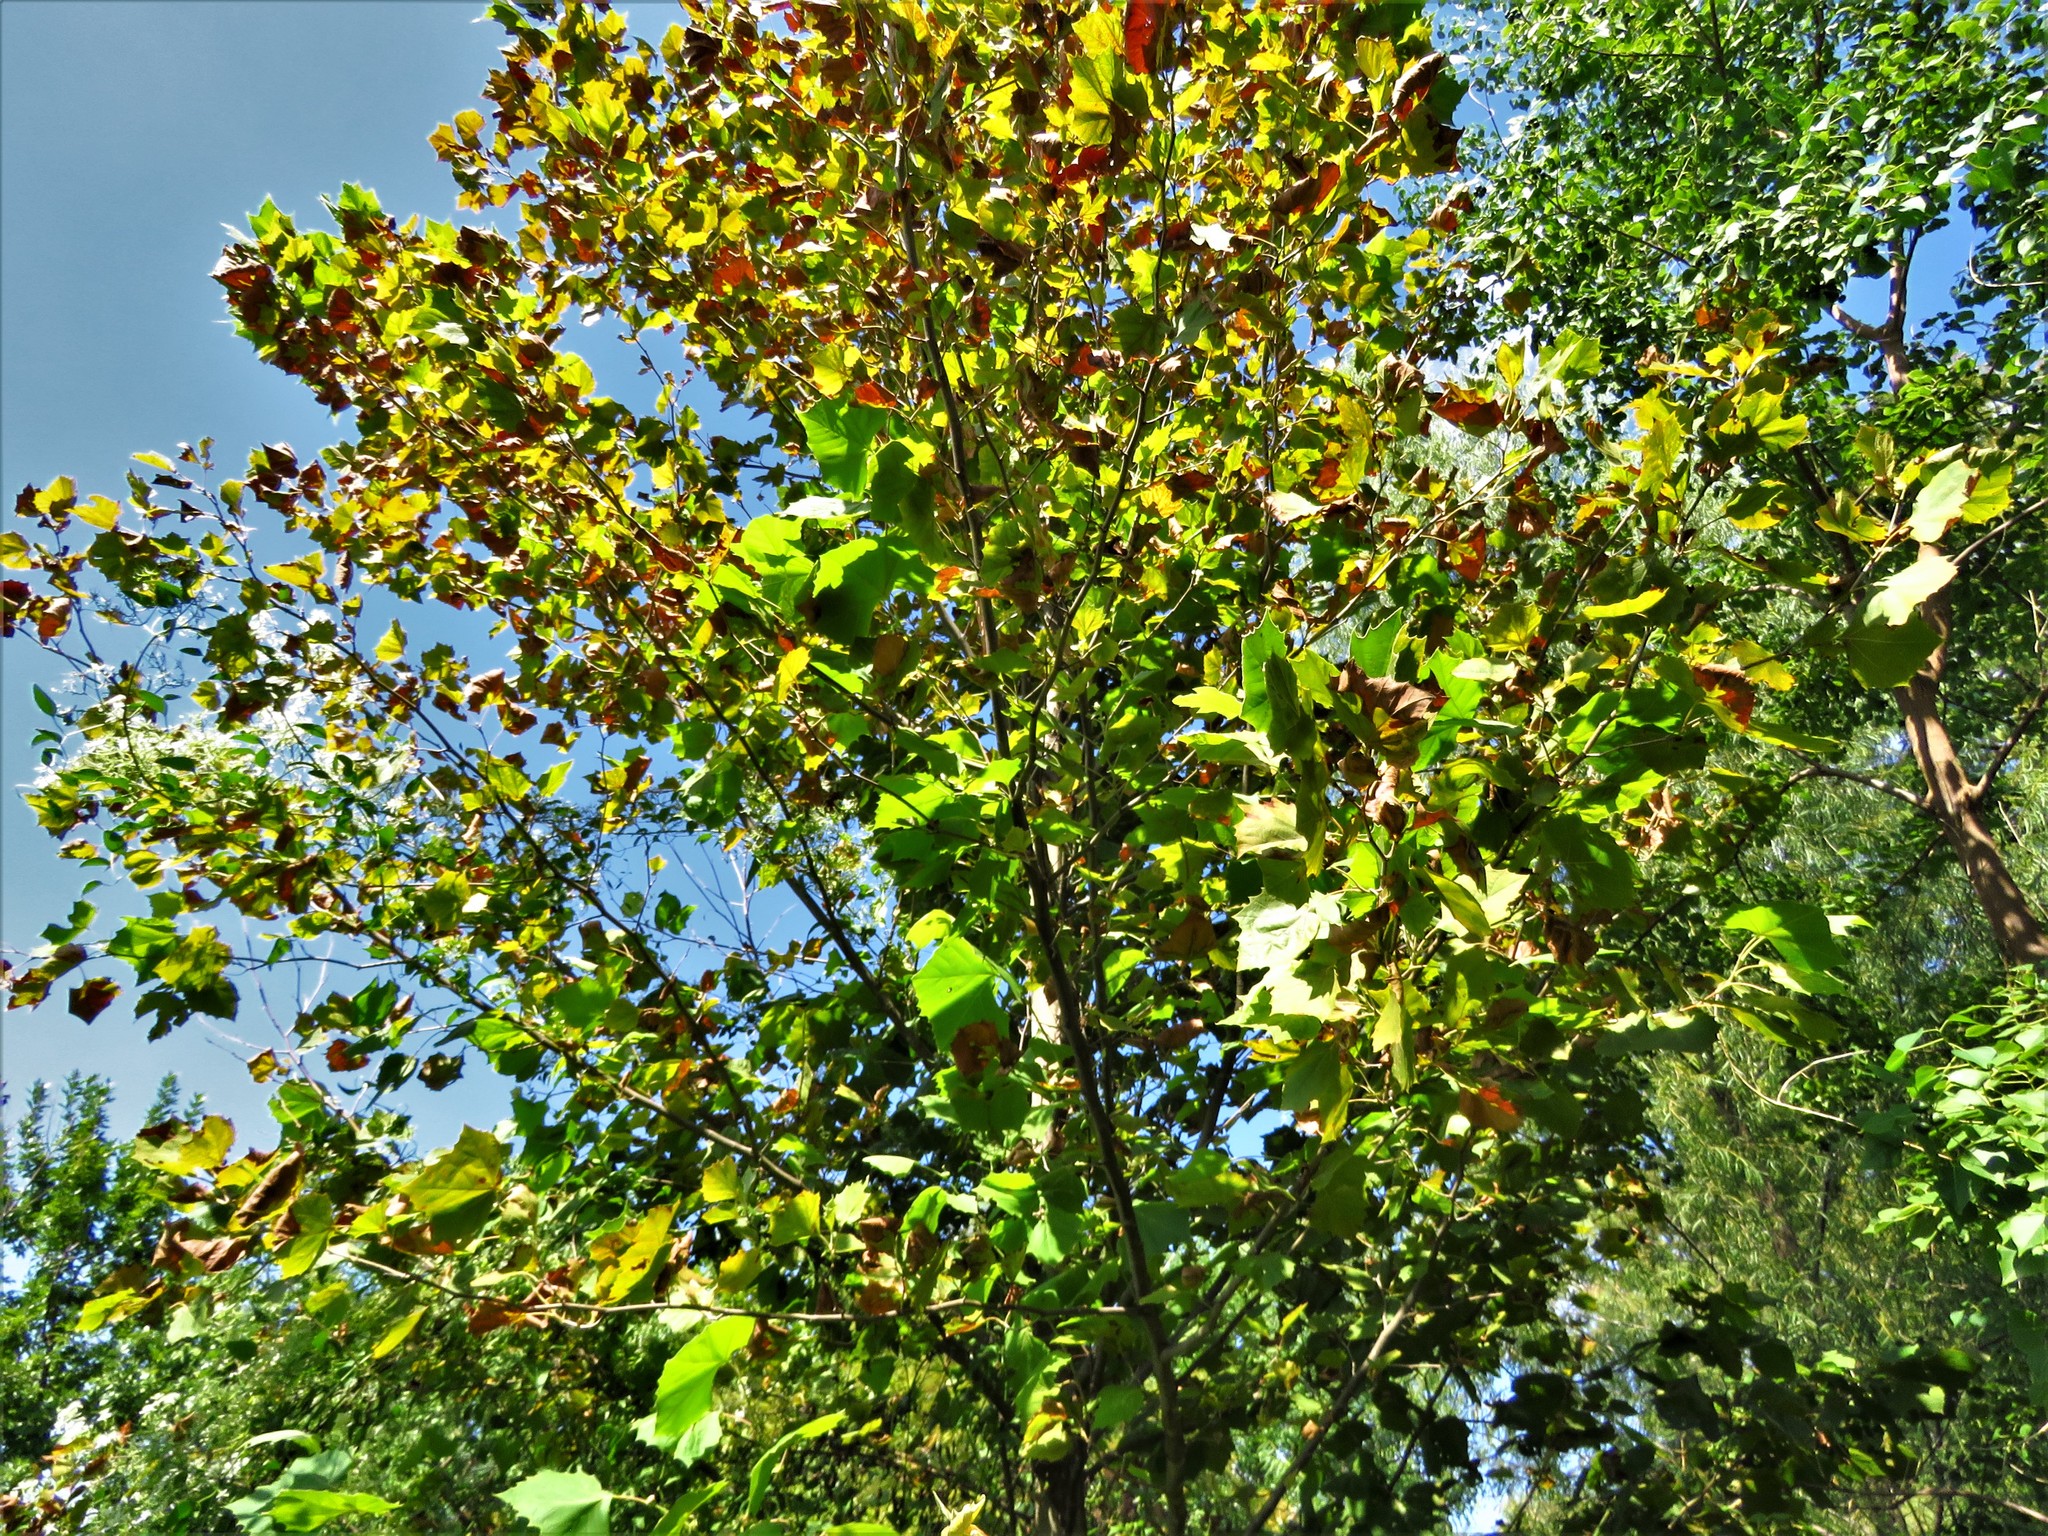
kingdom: Plantae
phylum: Tracheophyta
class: Magnoliopsida
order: Proteales
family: Platanaceae
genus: Platanus
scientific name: Platanus occidentalis
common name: American sycamore
